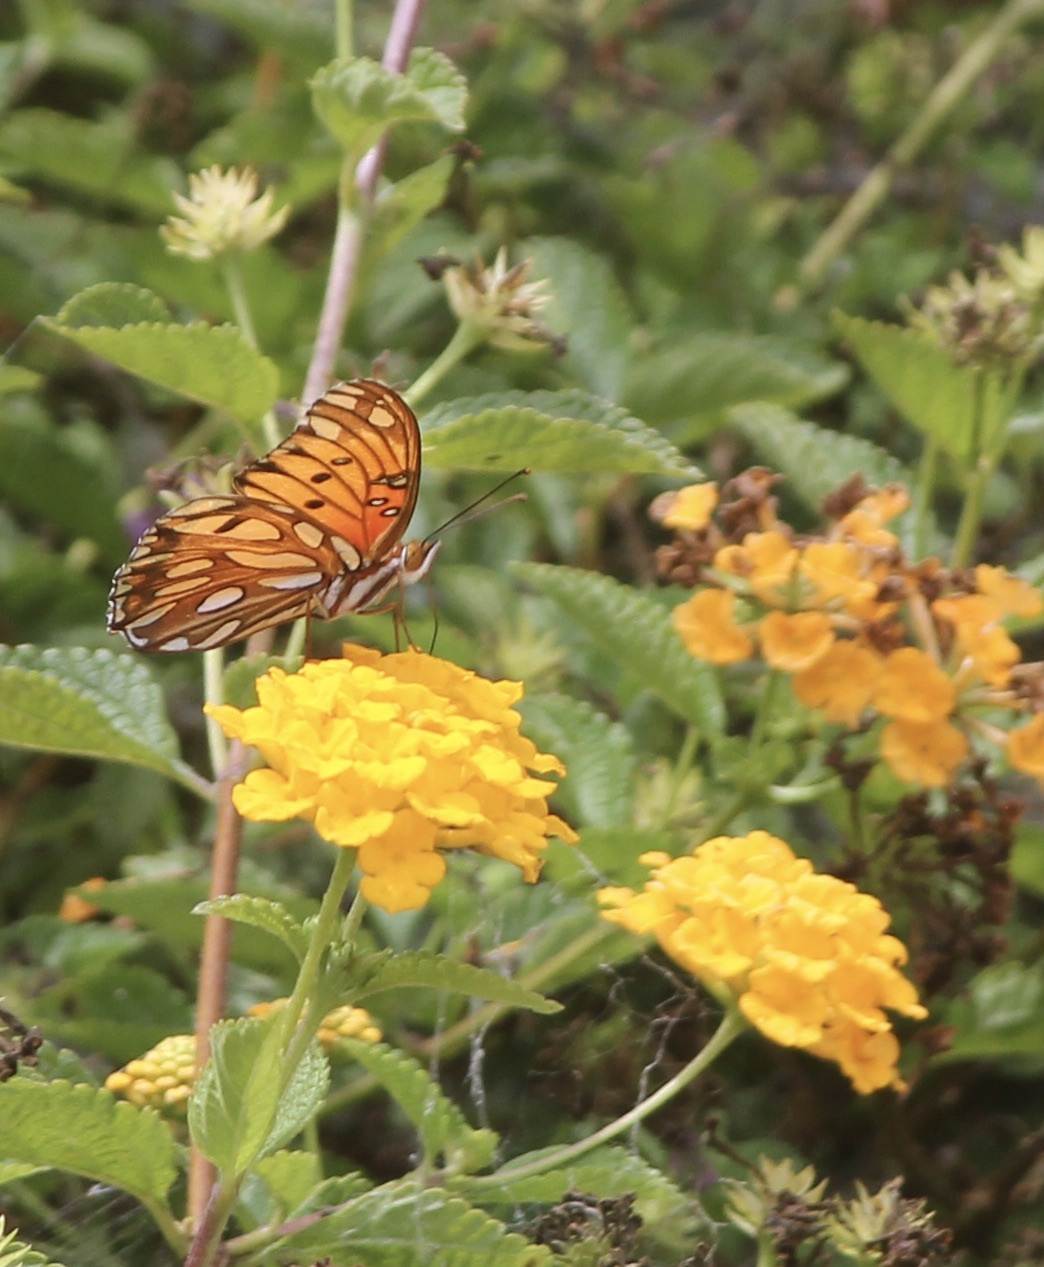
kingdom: Animalia
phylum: Arthropoda
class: Insecta
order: Lepidoptera
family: Nymphalidae
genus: Dione
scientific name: Dione vanillae
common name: Gulf fritillary
